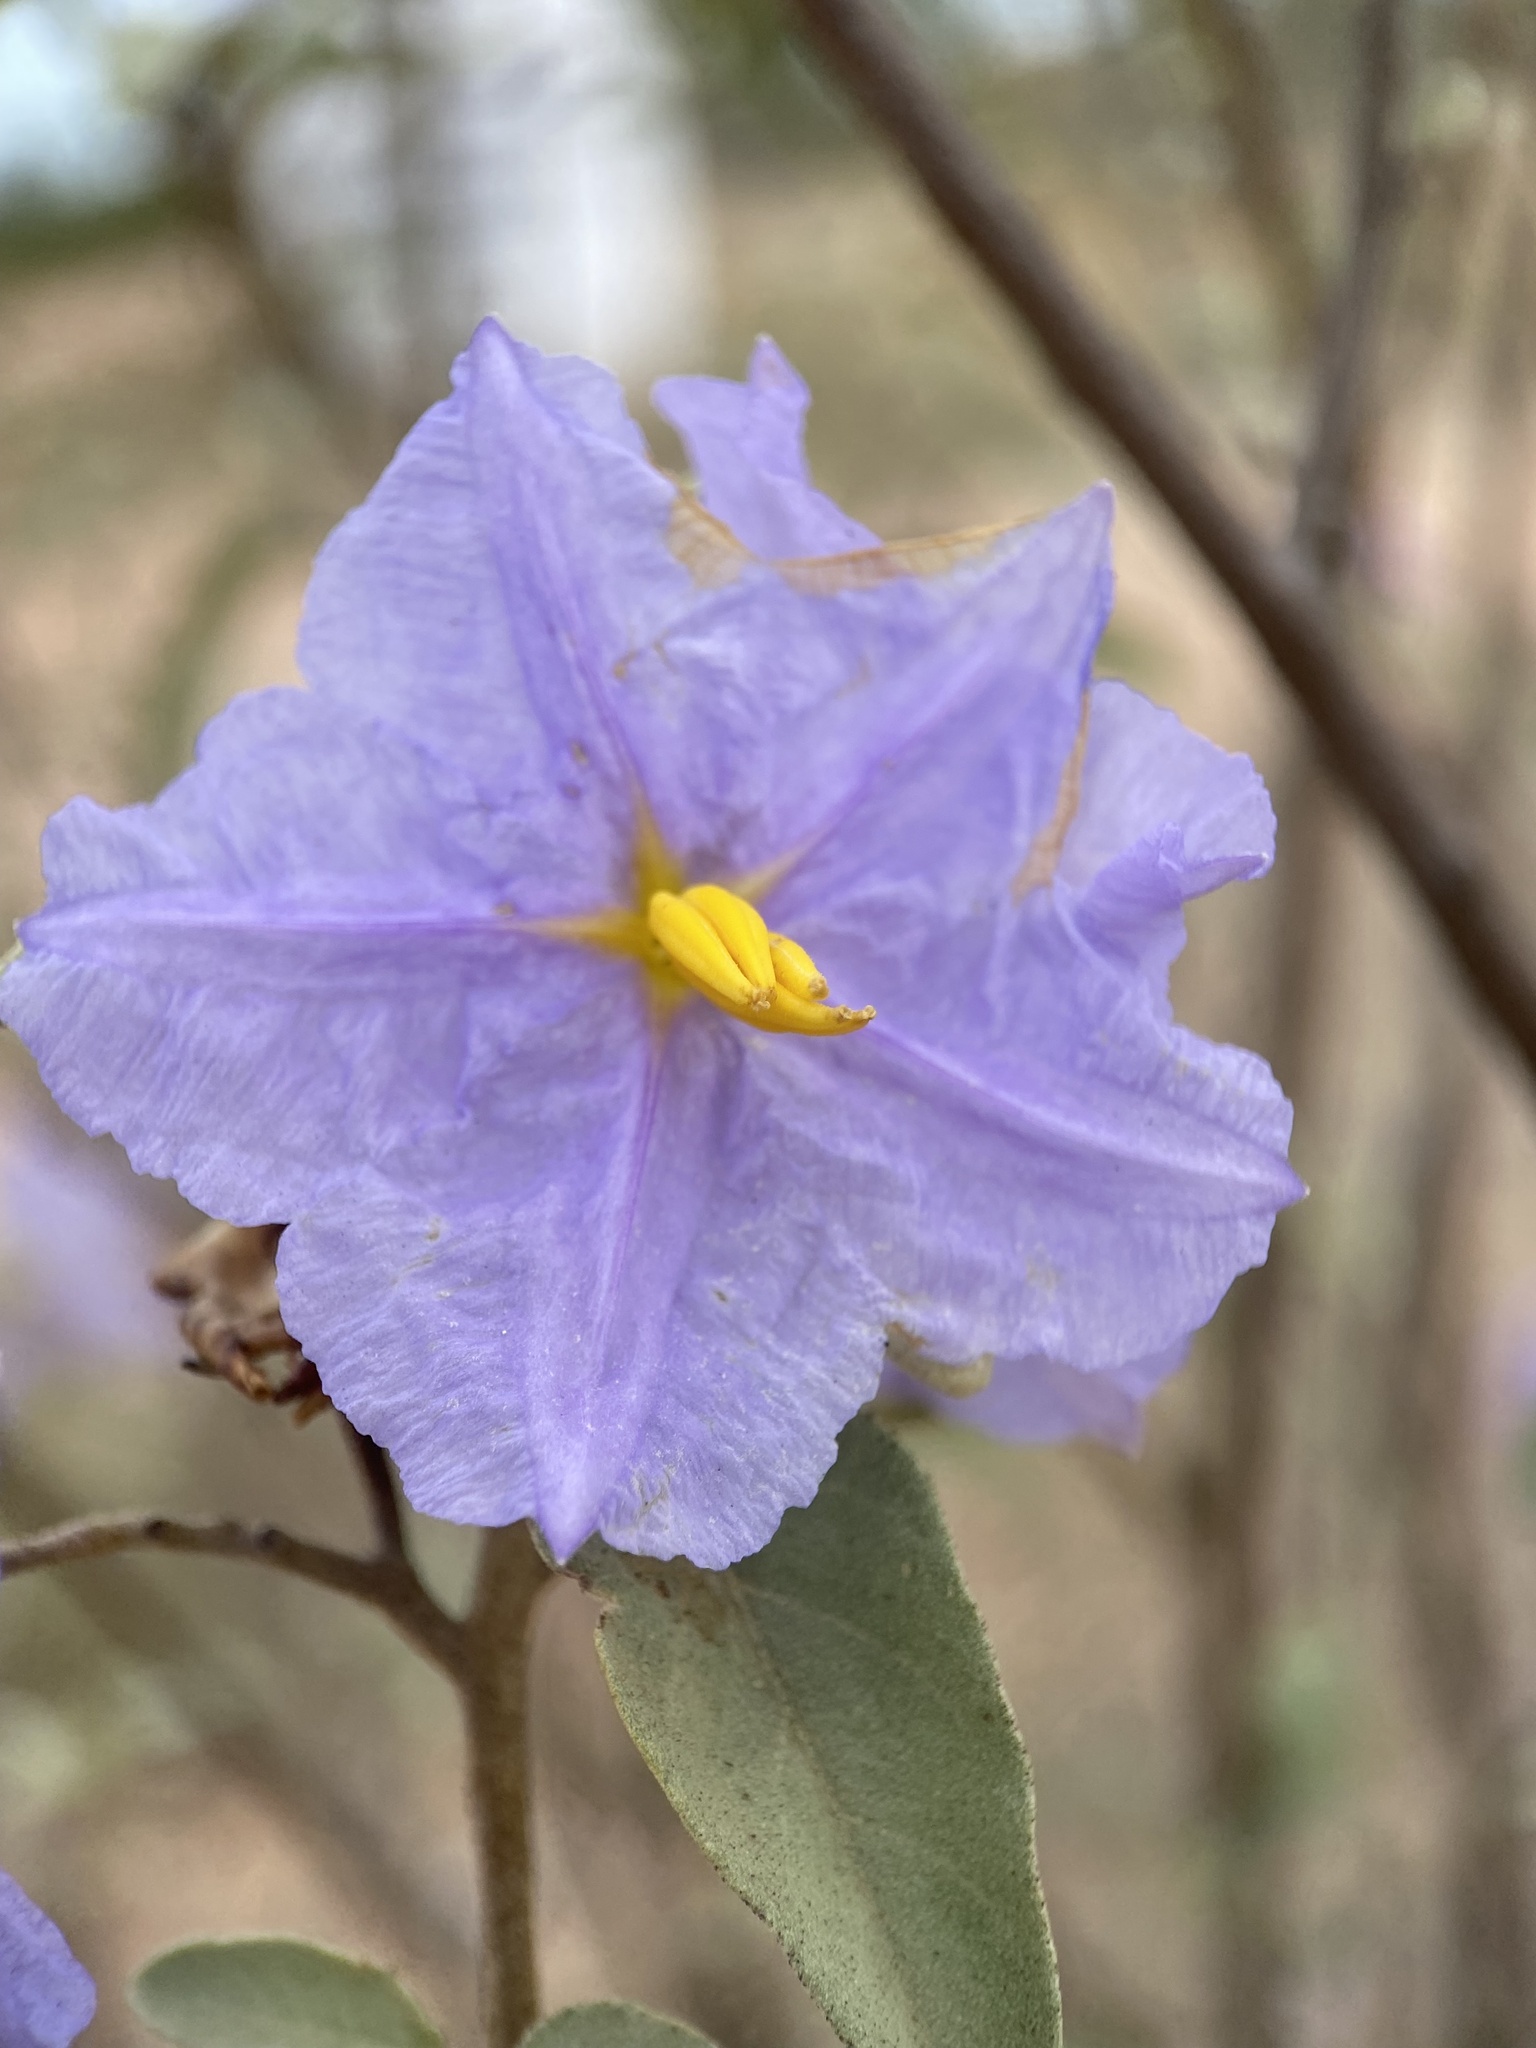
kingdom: Plantae
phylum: Tracheophyta
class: Magnoliopsida
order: Solanales
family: Solanaceae
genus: Solanum
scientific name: Solanum hindsianum
